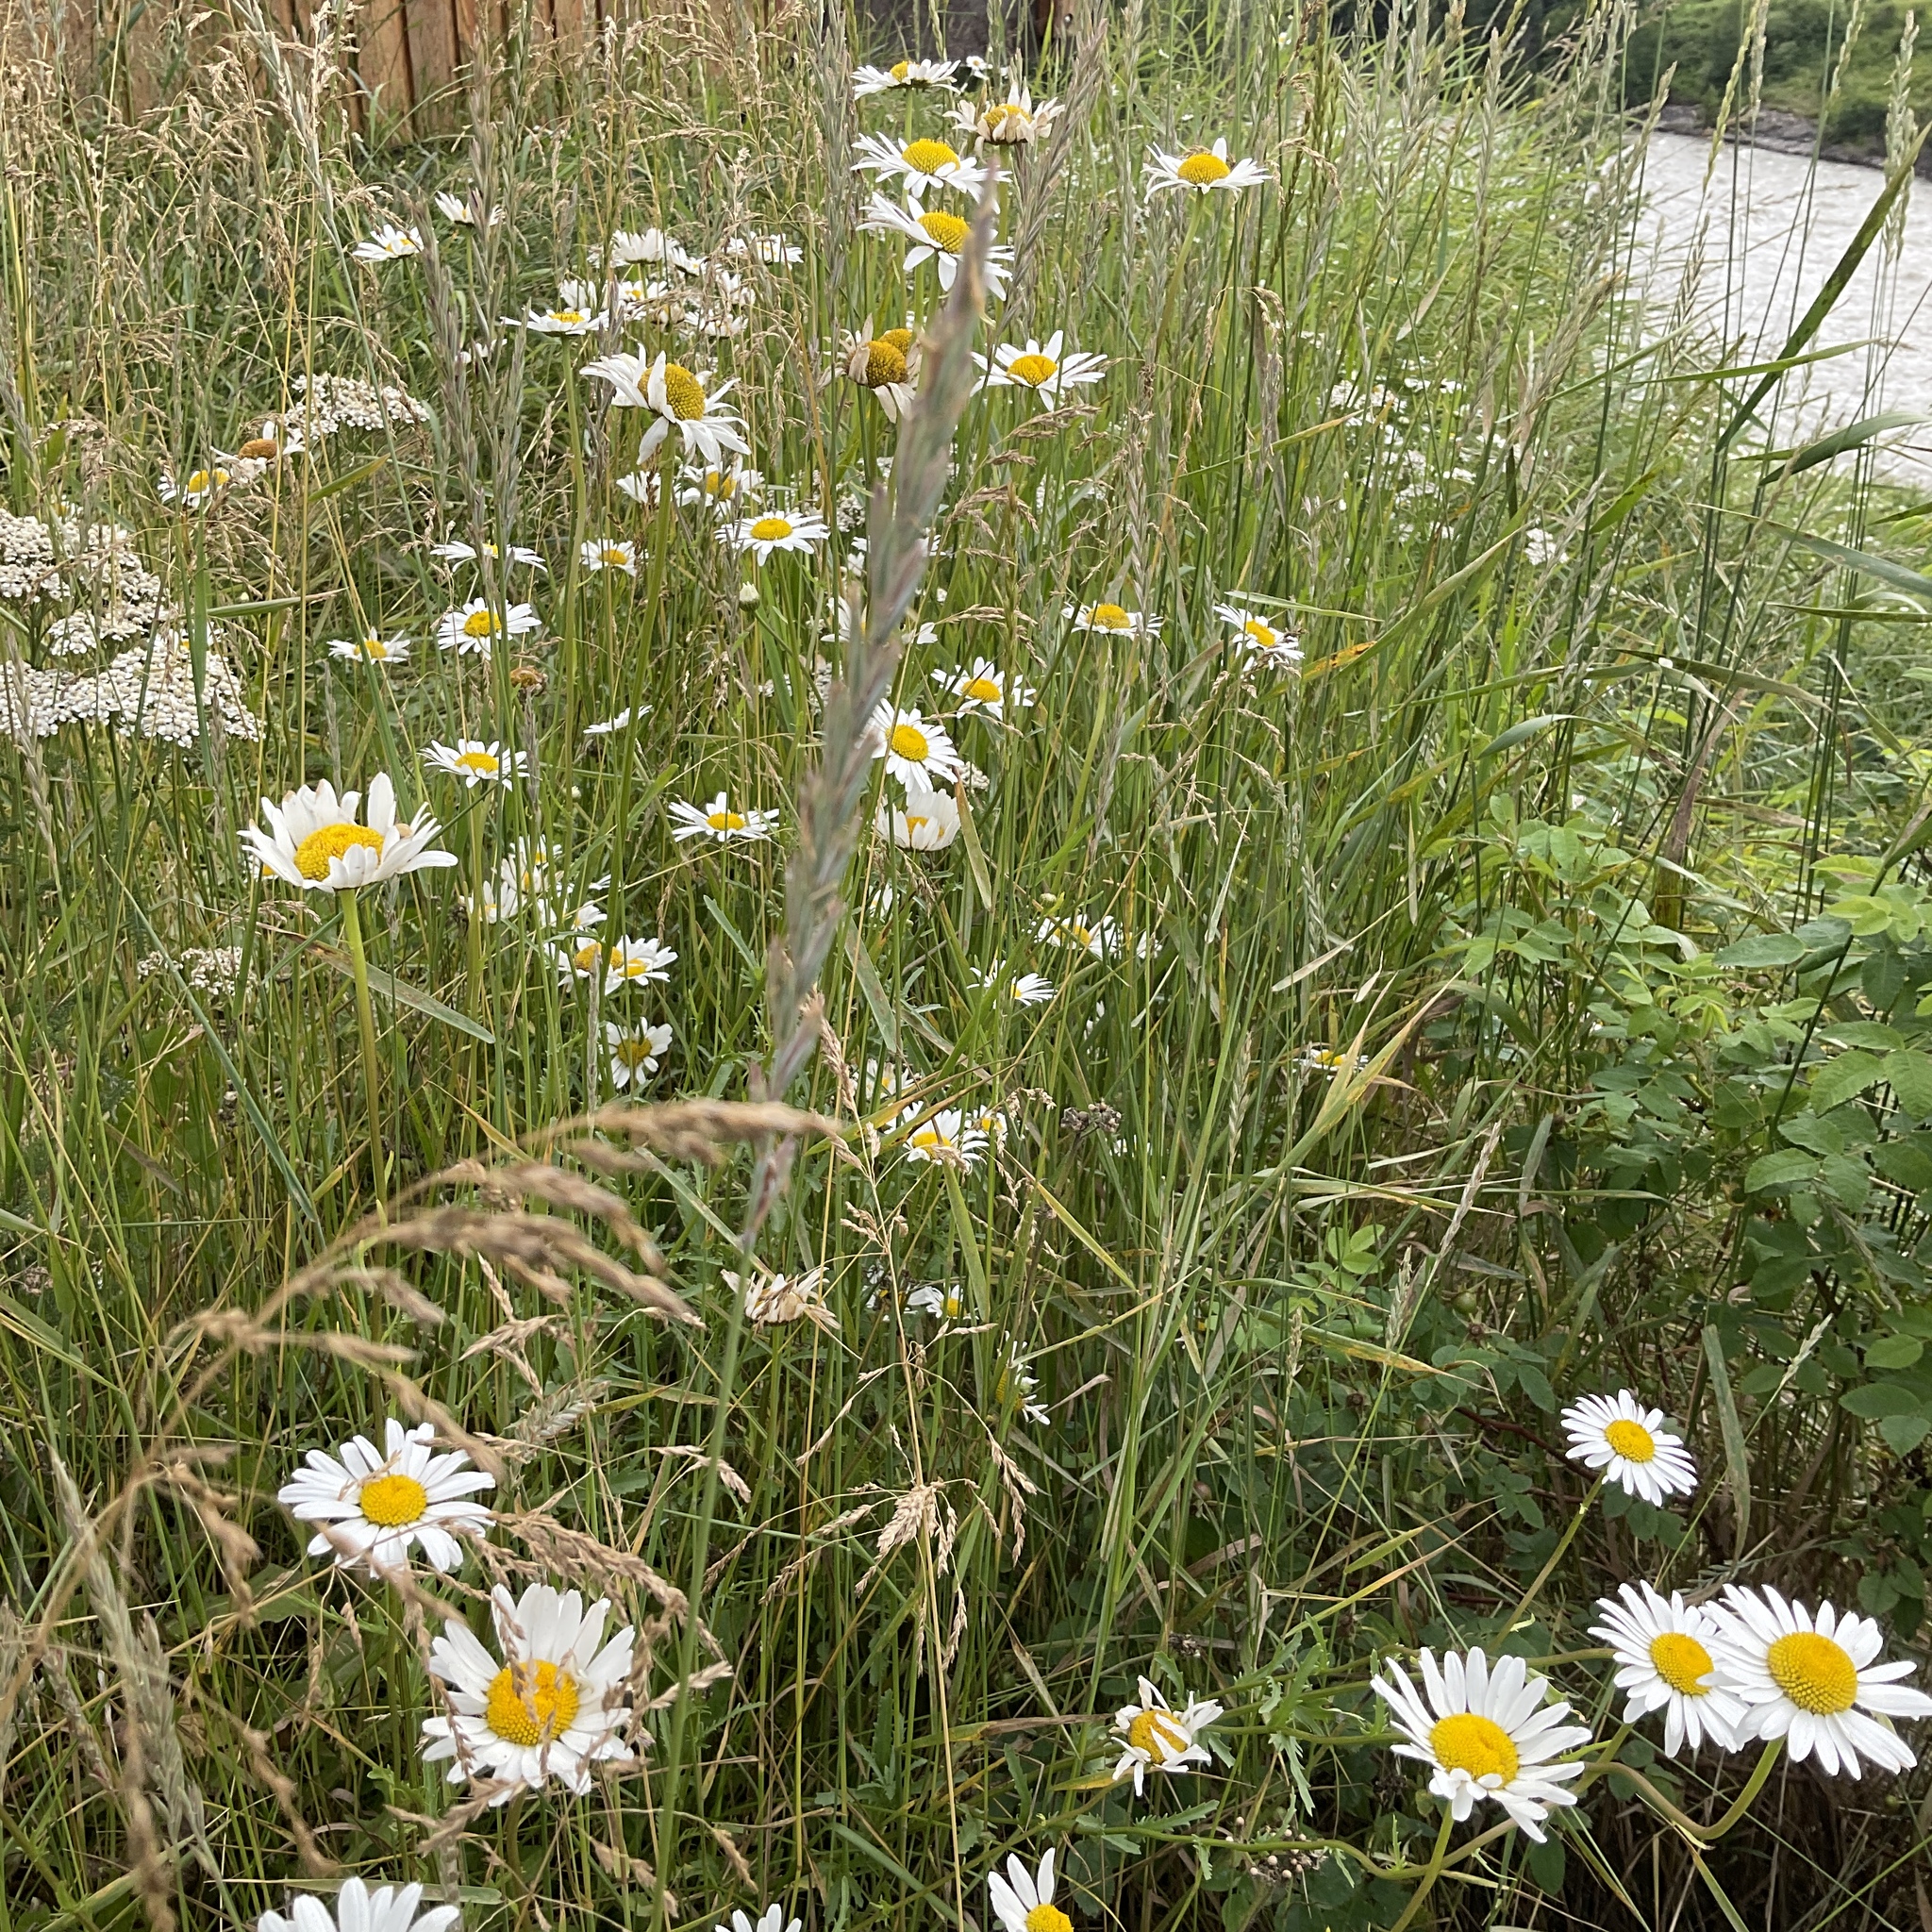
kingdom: Plantae
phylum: Tracheophyta
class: Magnoliopsida
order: Asterales
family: Asteraceae
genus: Leucanthemum
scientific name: Leucanthemum vulgare
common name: Oxeye daisy
